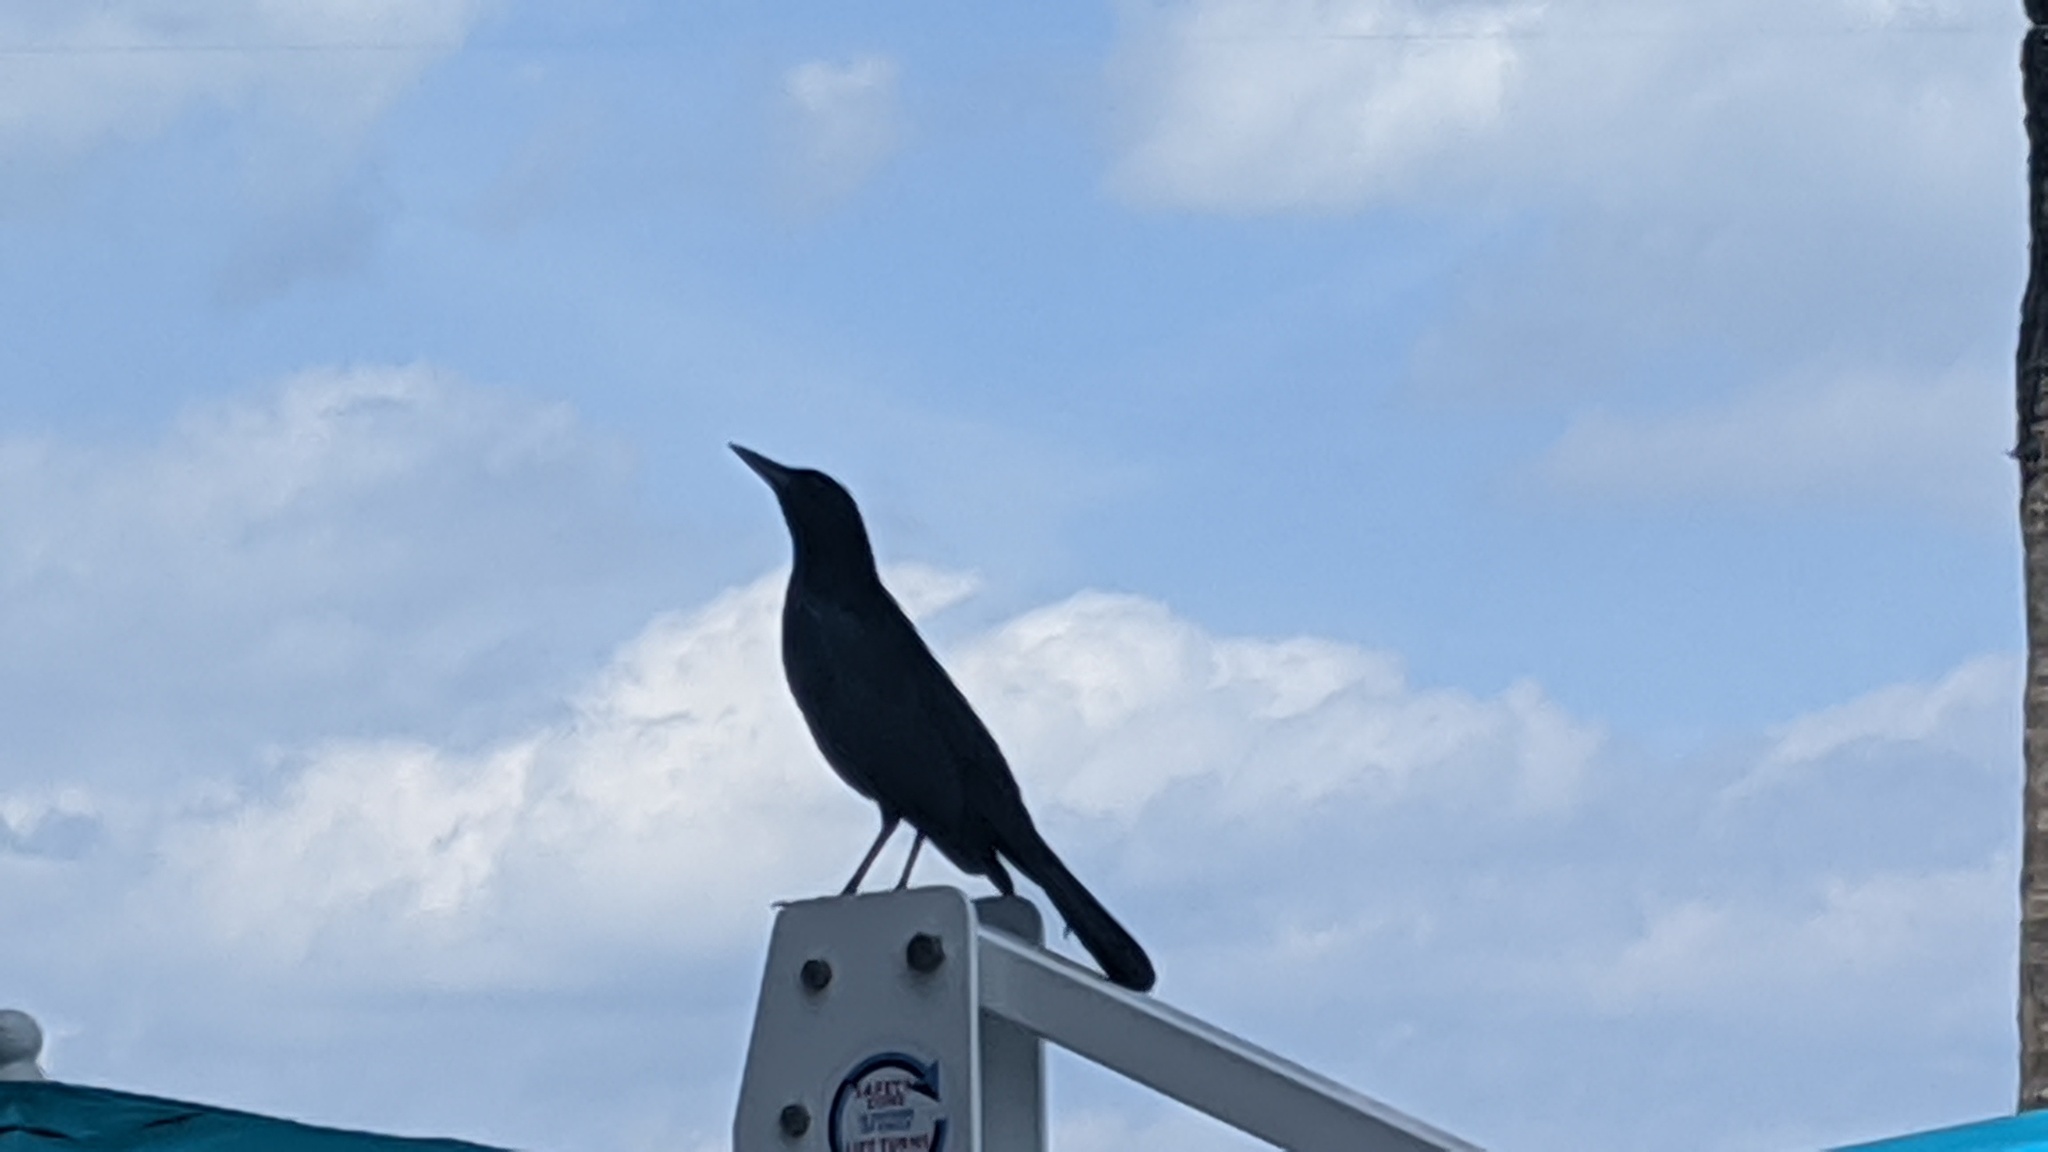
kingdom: Animalia
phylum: Chordata
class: Aves
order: Passeriformes
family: Icteridae
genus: Quiscalus
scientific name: Quiscalus major
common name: Boat-tailed grackle
